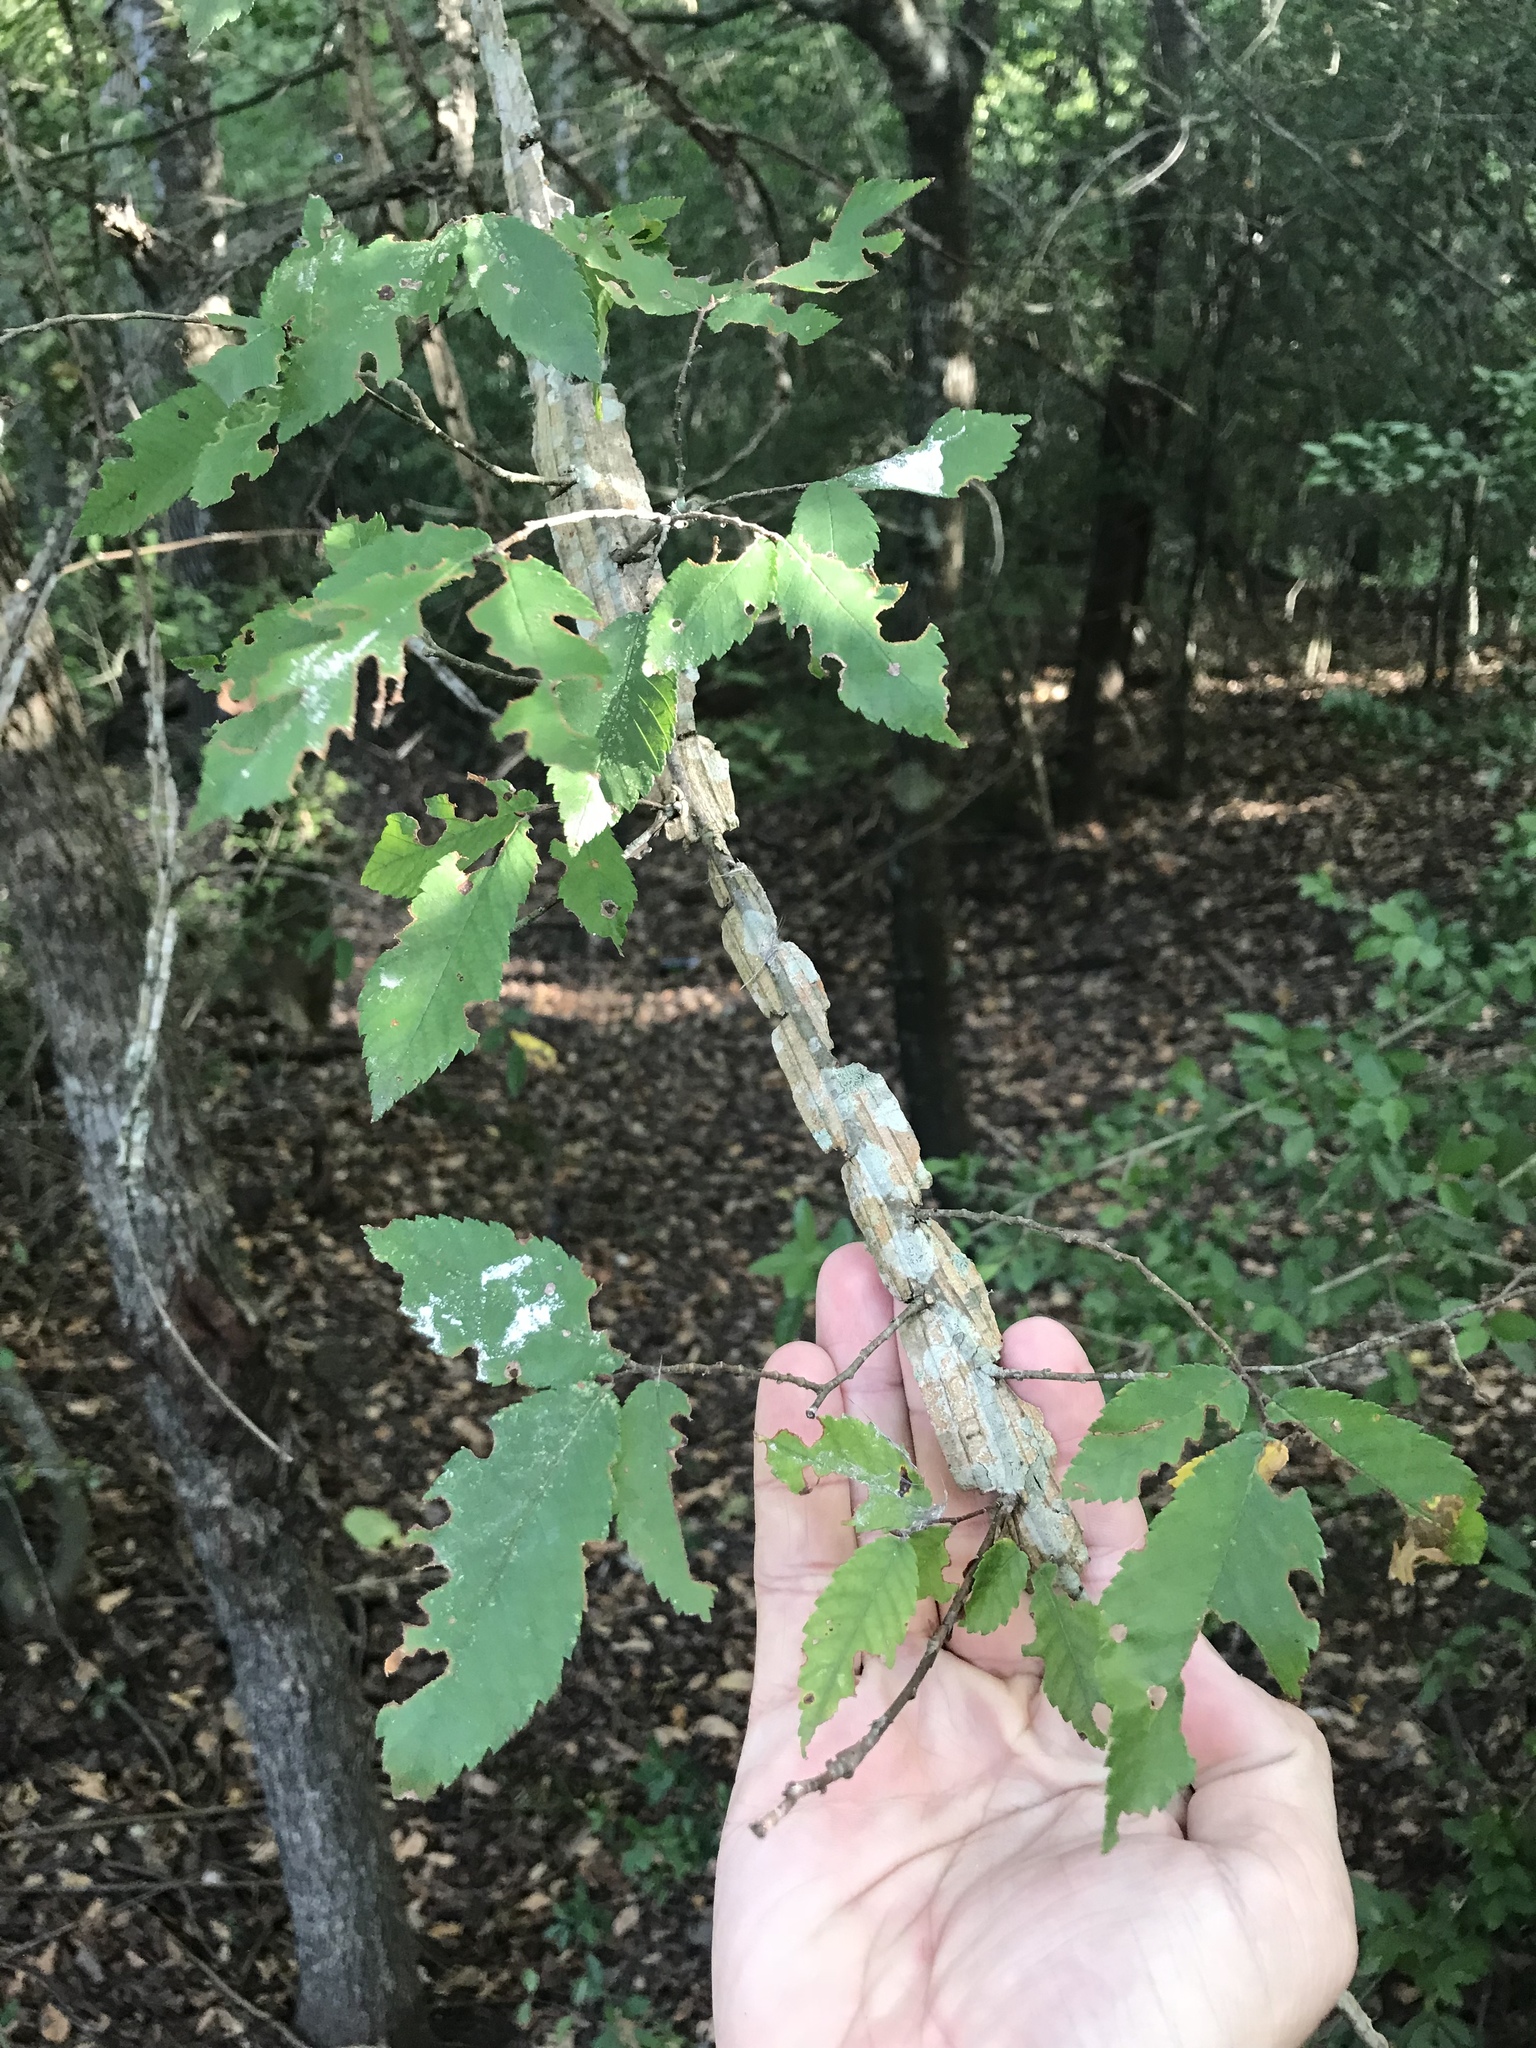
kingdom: Plantae
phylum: Tracheophyta
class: Magnoliopsida
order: Rosales
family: Ulmaceae
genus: Ulmus
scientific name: Ulmus alata
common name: Winged elm
